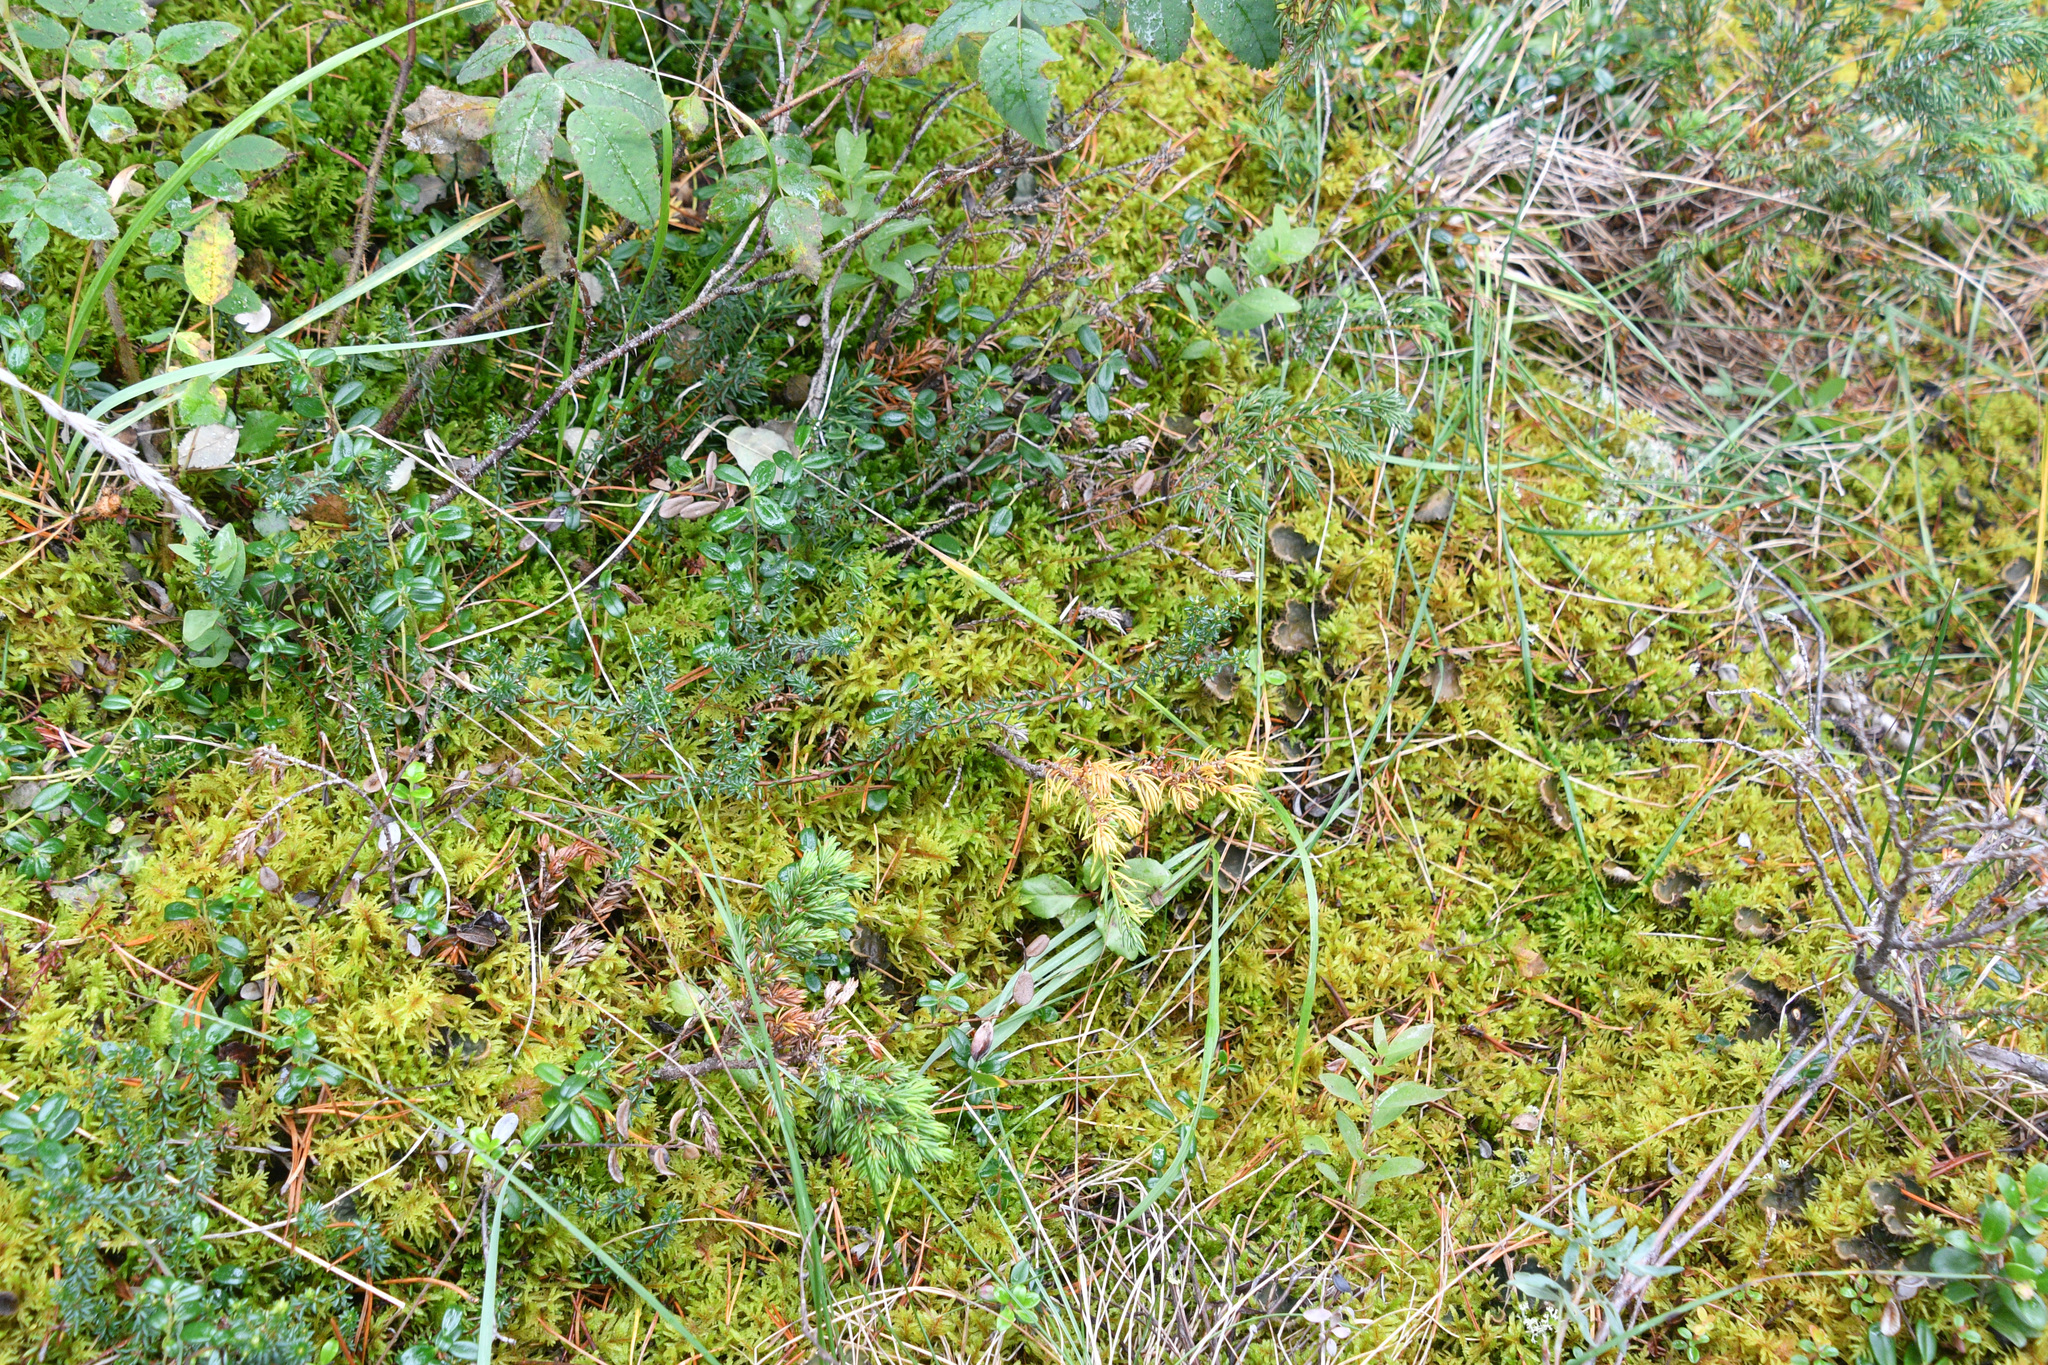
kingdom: Plantae
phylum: Tracheophyta
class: Magnoliopsida
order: Ericales
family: Ericaceae
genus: Empetrum
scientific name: Empetrum nigrum
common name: Black crowberry
